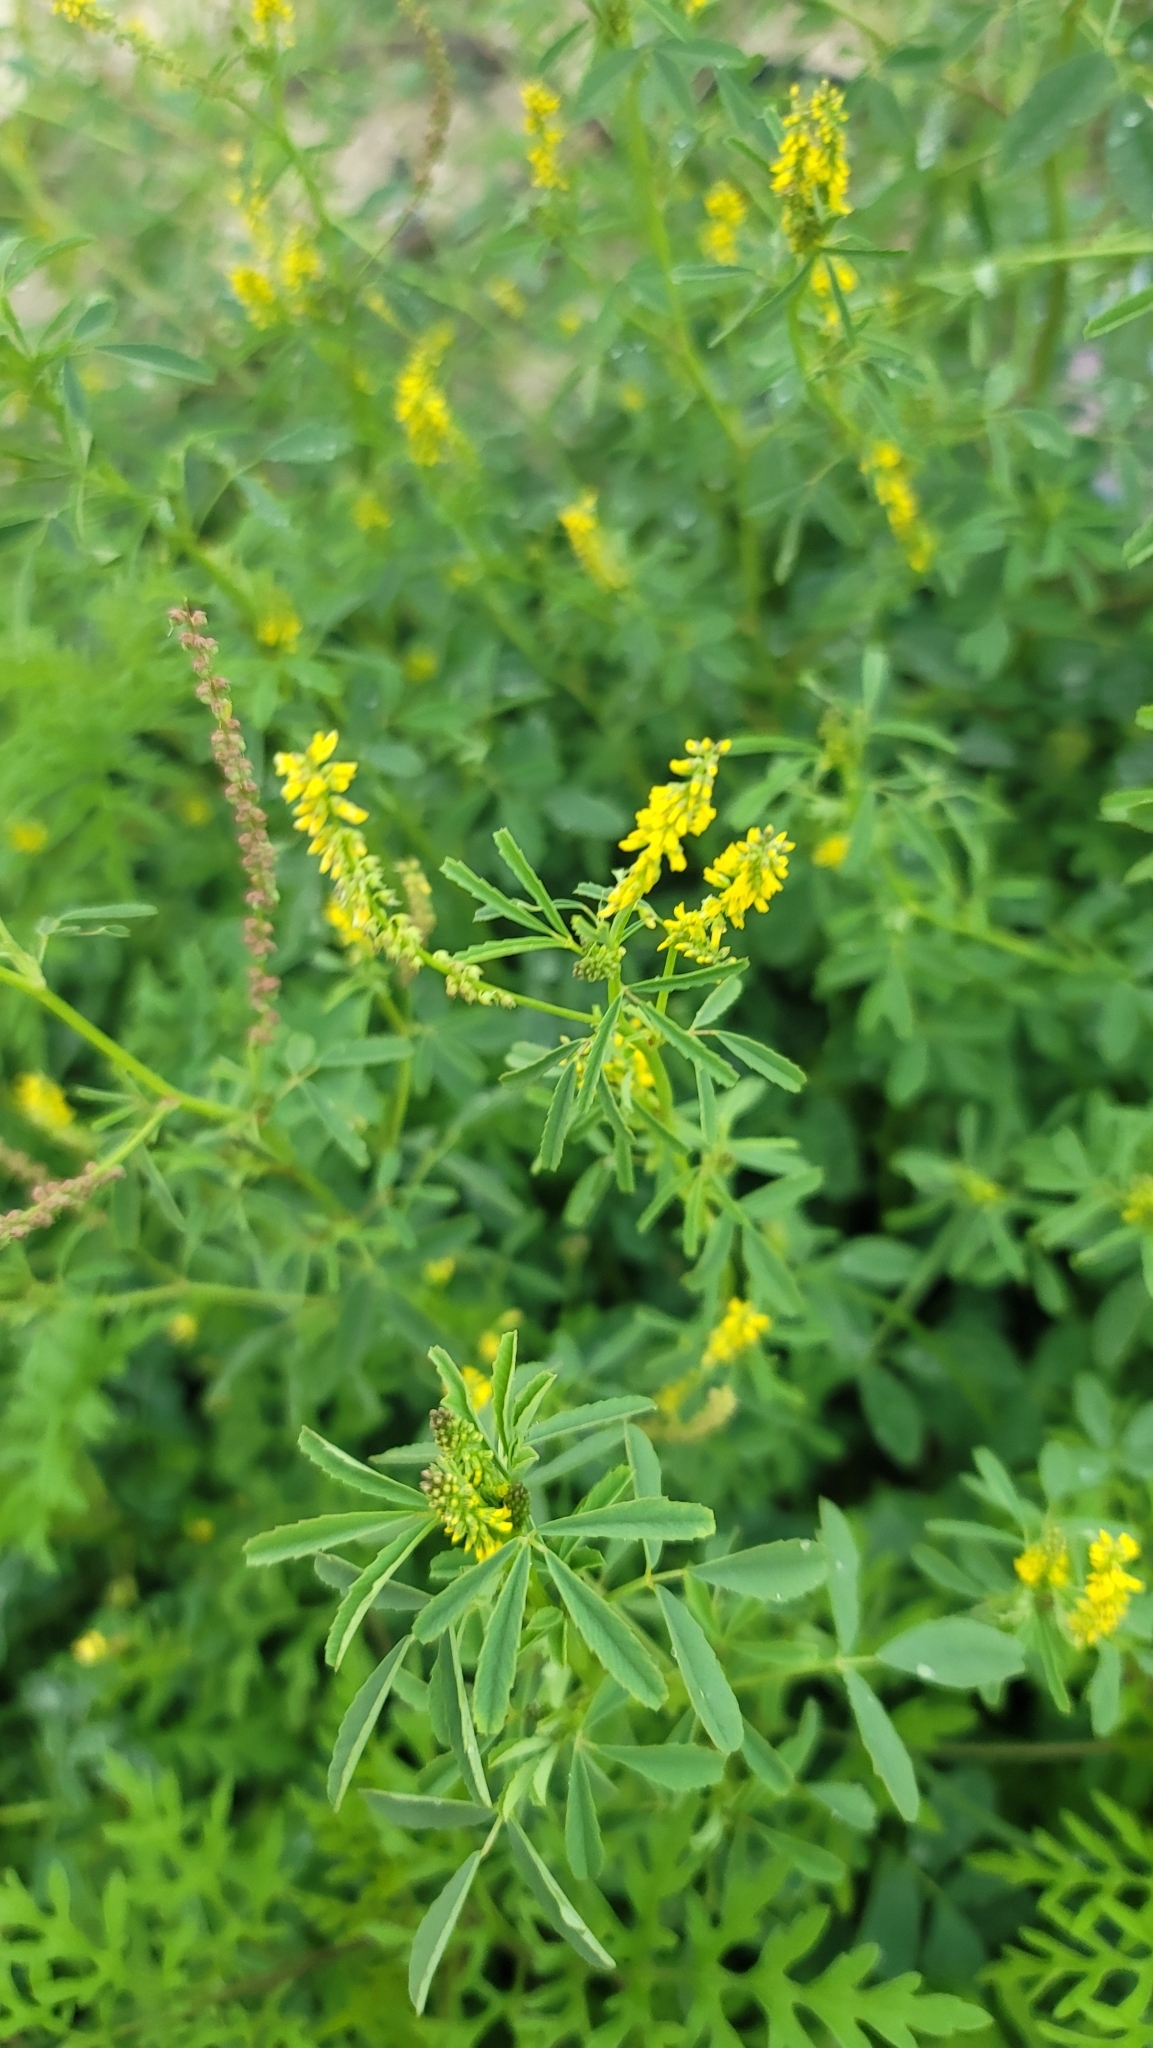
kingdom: Plantae
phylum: Tracheophyta
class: Magnoliopsida
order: Fabales
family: Fabaceae
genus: Melilotus
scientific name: Melilotus indicus
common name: Small melilot
